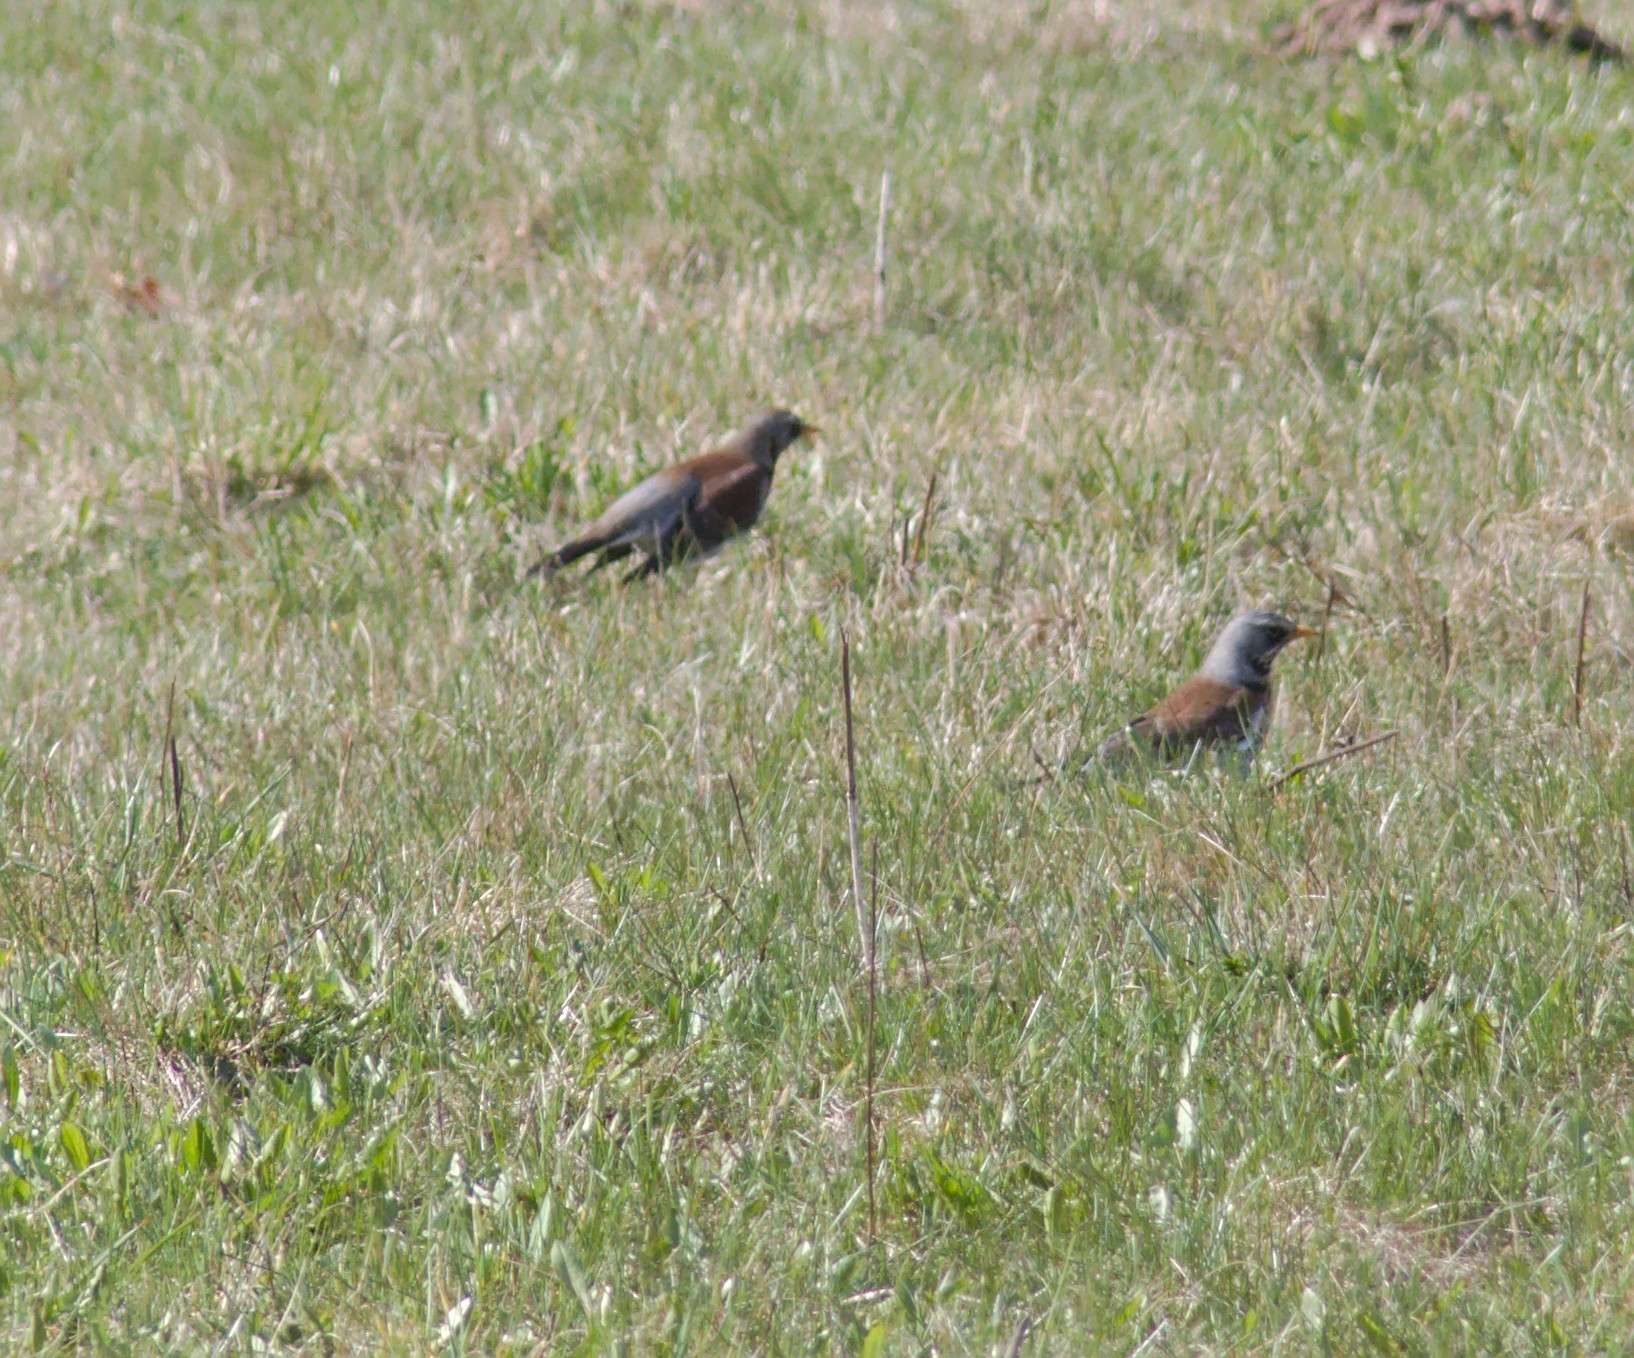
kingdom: Animalia
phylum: Chordata
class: Aves
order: Passeriformes
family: Turdidae
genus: Turdus
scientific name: Turdus pilaris
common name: Fieldfare
